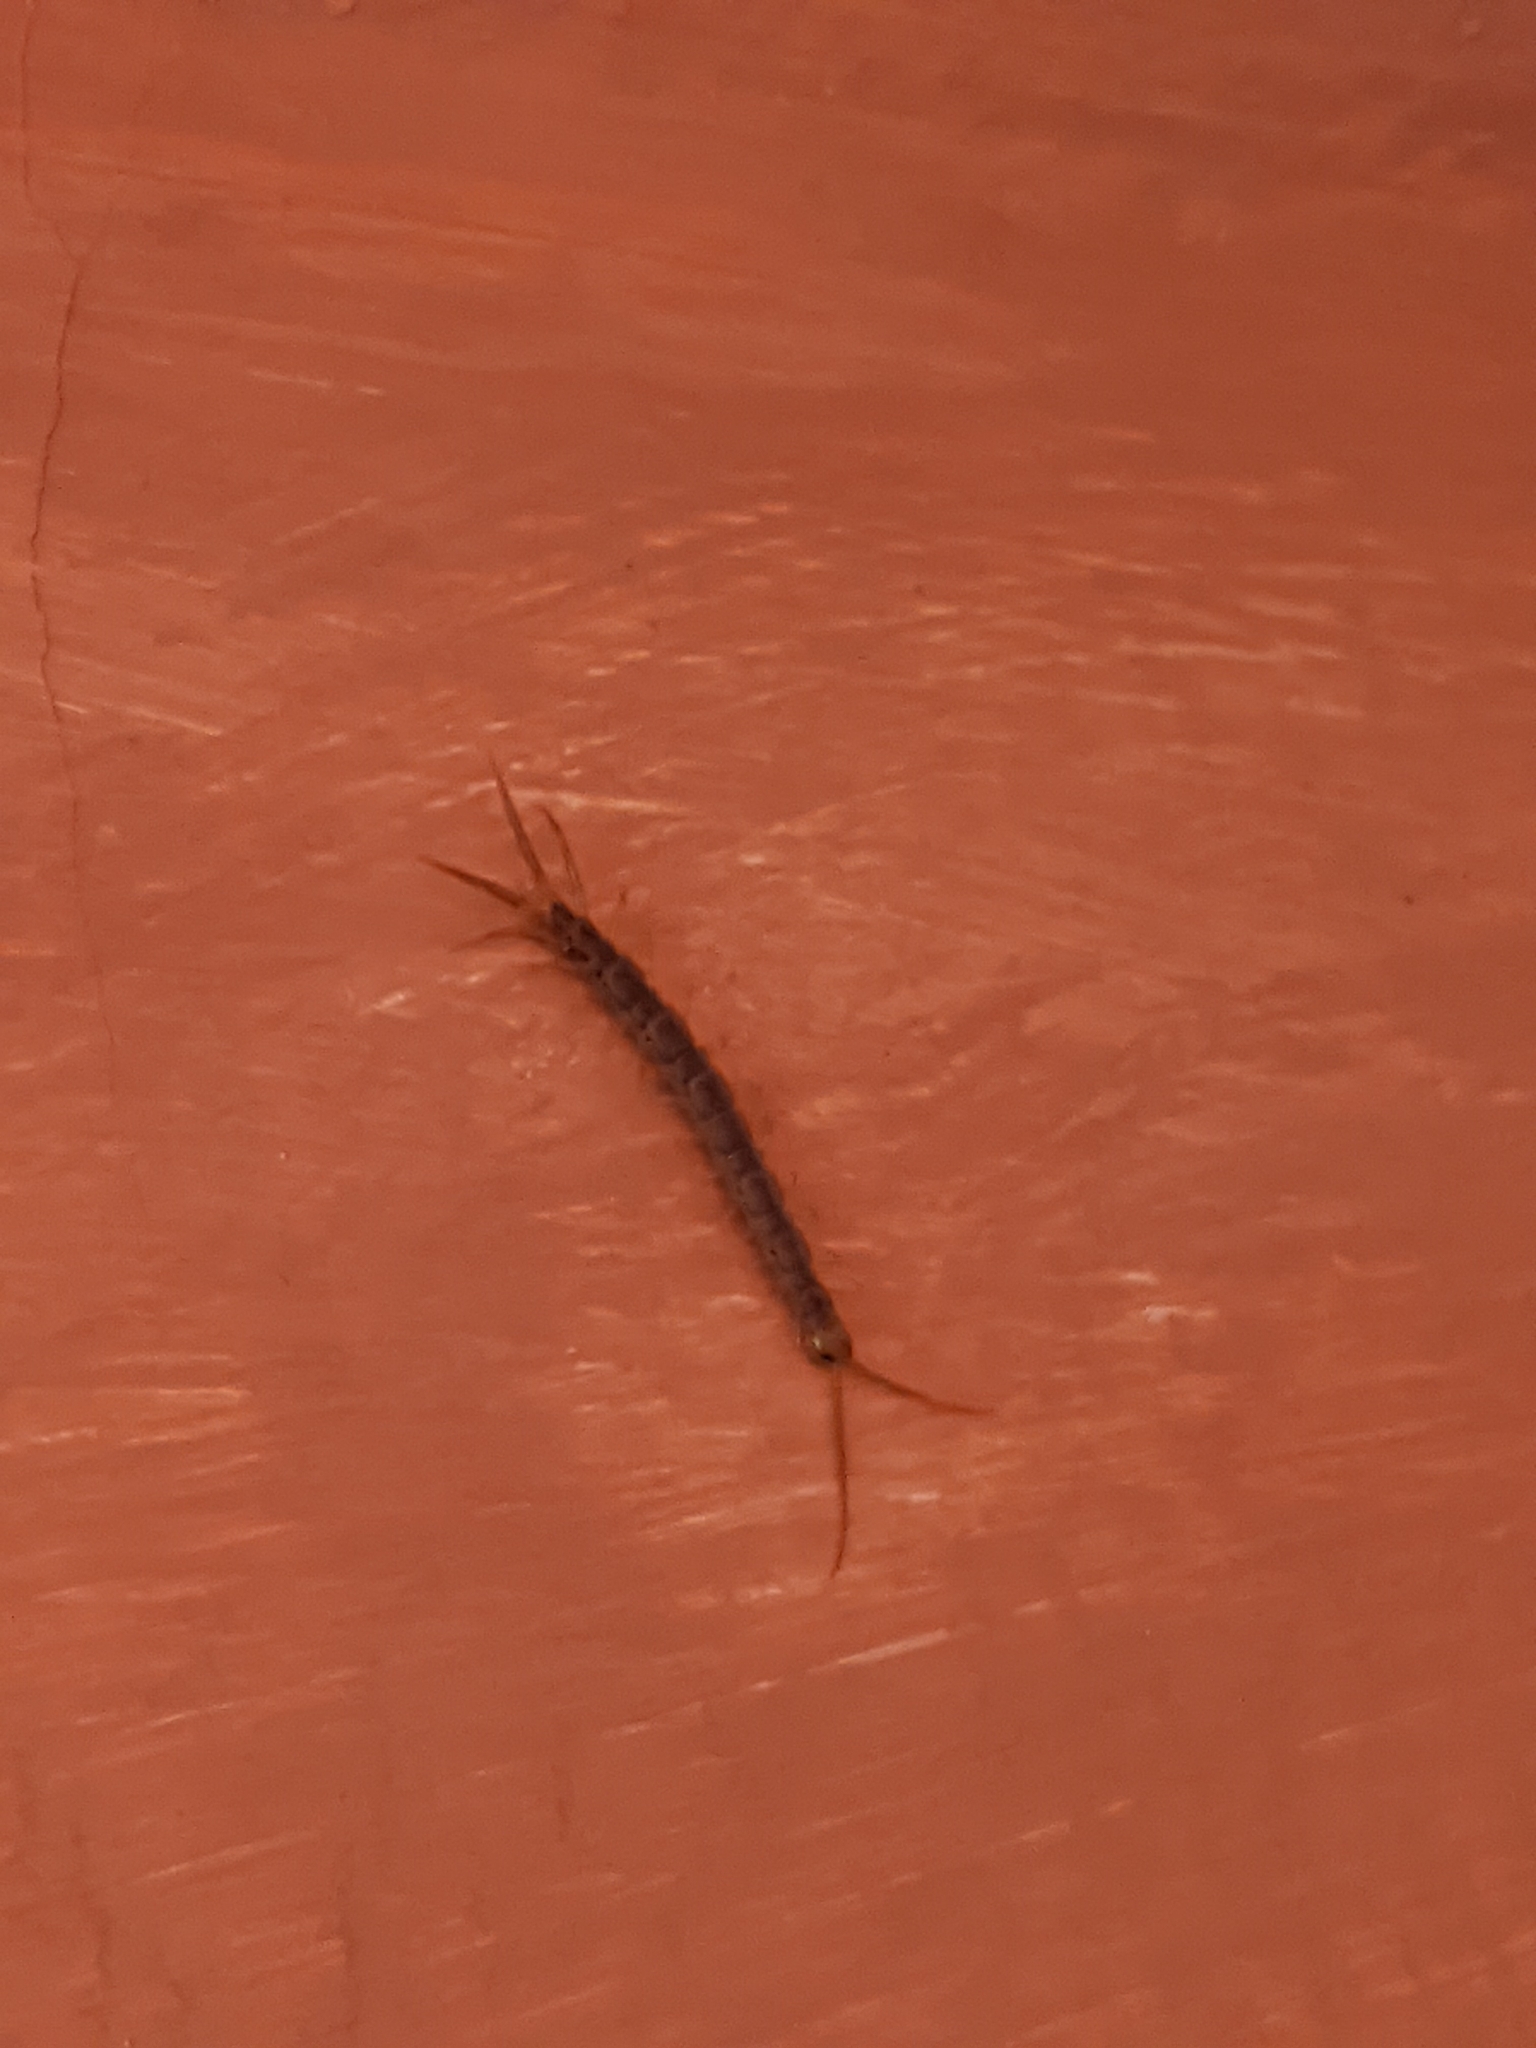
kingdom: Animalia
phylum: Arthropoda
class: Chilopoda
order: Lithobiomorpha
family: Lithobiidae
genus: Lithobius
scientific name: Lithobius forficatus
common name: Centipede
